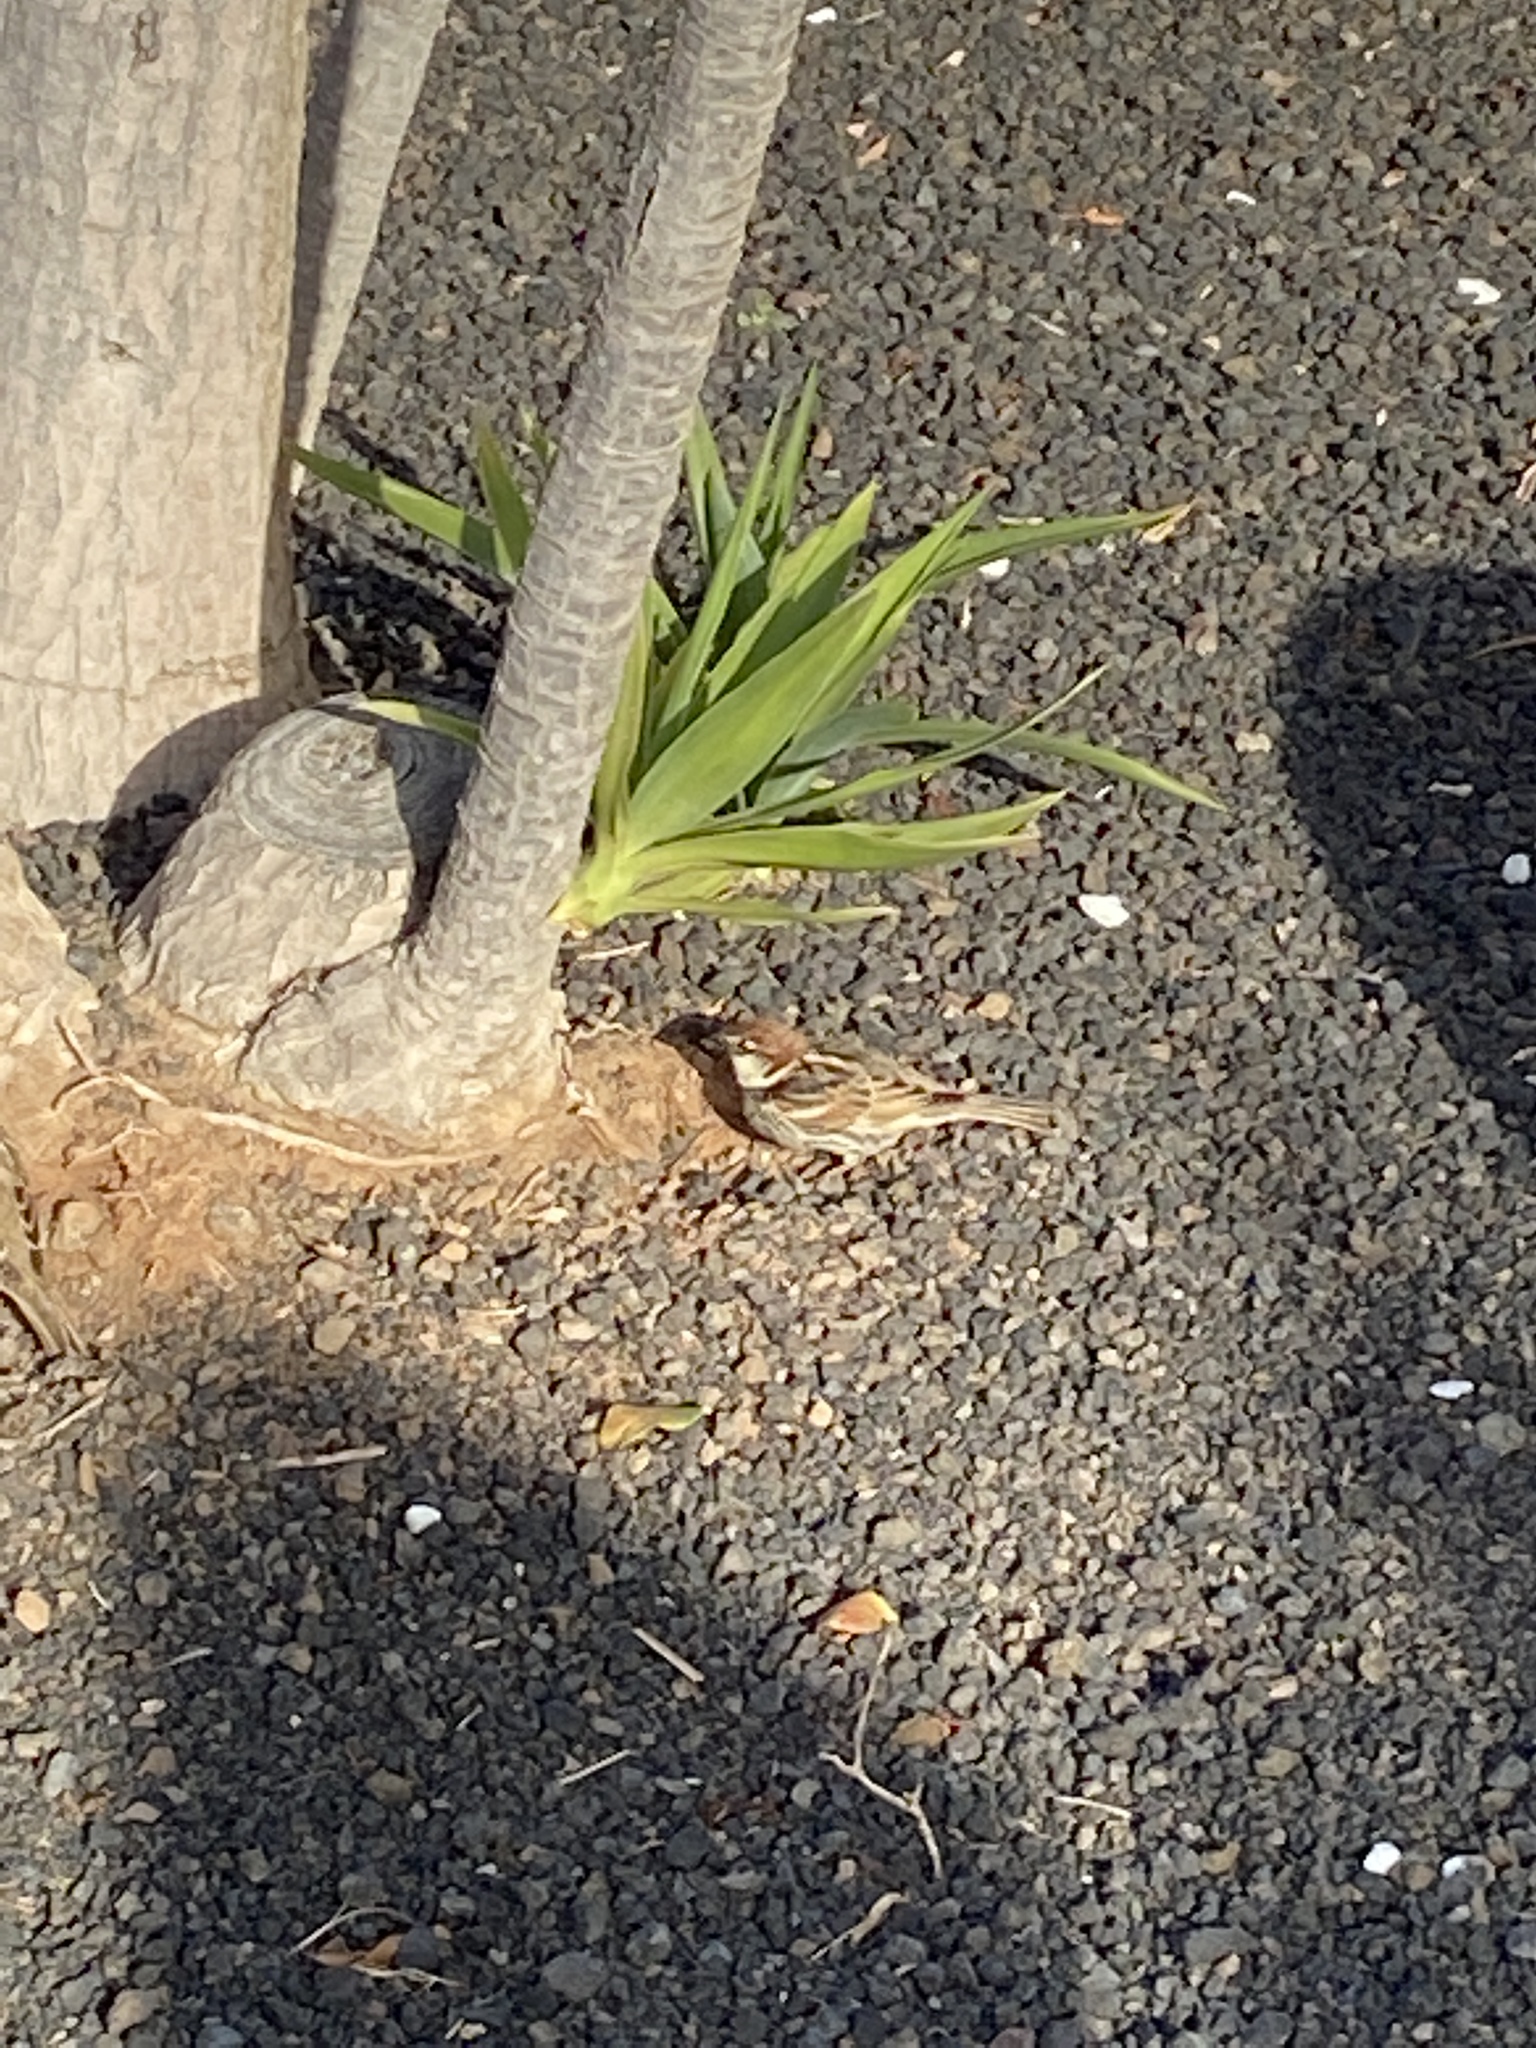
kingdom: Animalia
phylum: Chordata
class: Aves
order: Passeriformes
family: Passeridae
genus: Passer
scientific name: Passer hispaniolensis
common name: Spanish sparrow
